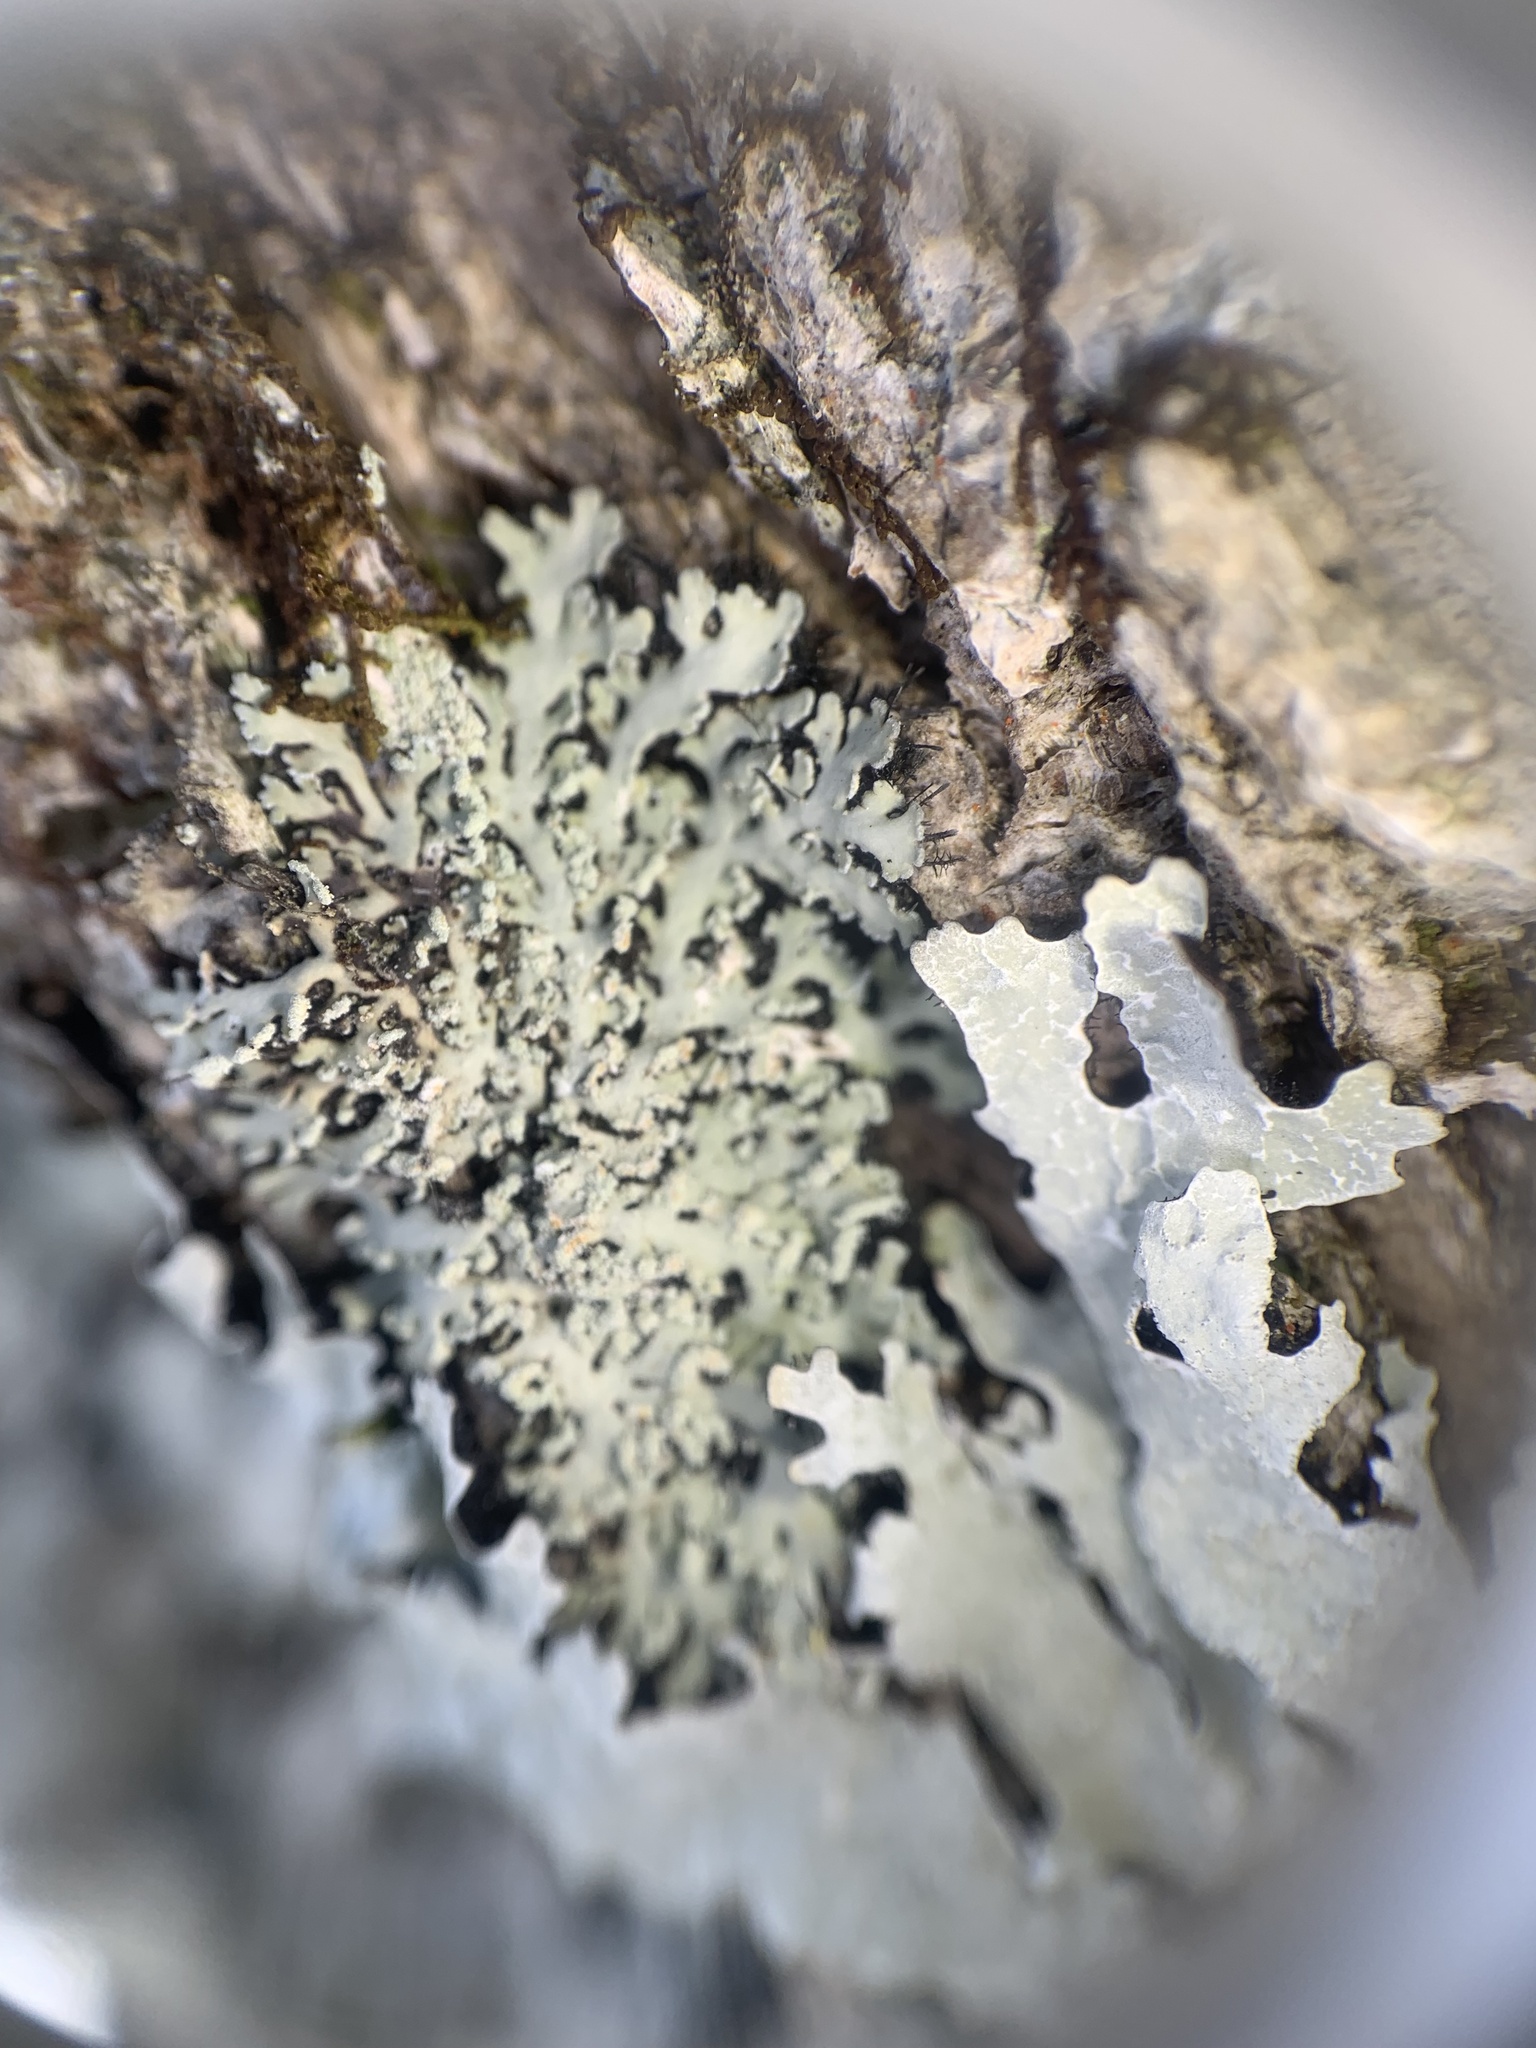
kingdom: Fungi
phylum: Ascomycota
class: Lecanoromycetes
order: Caliciales
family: Physciaceae
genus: Heterodermia
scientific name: Heterodermia obscurata
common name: Coralloid rosette-lichen
